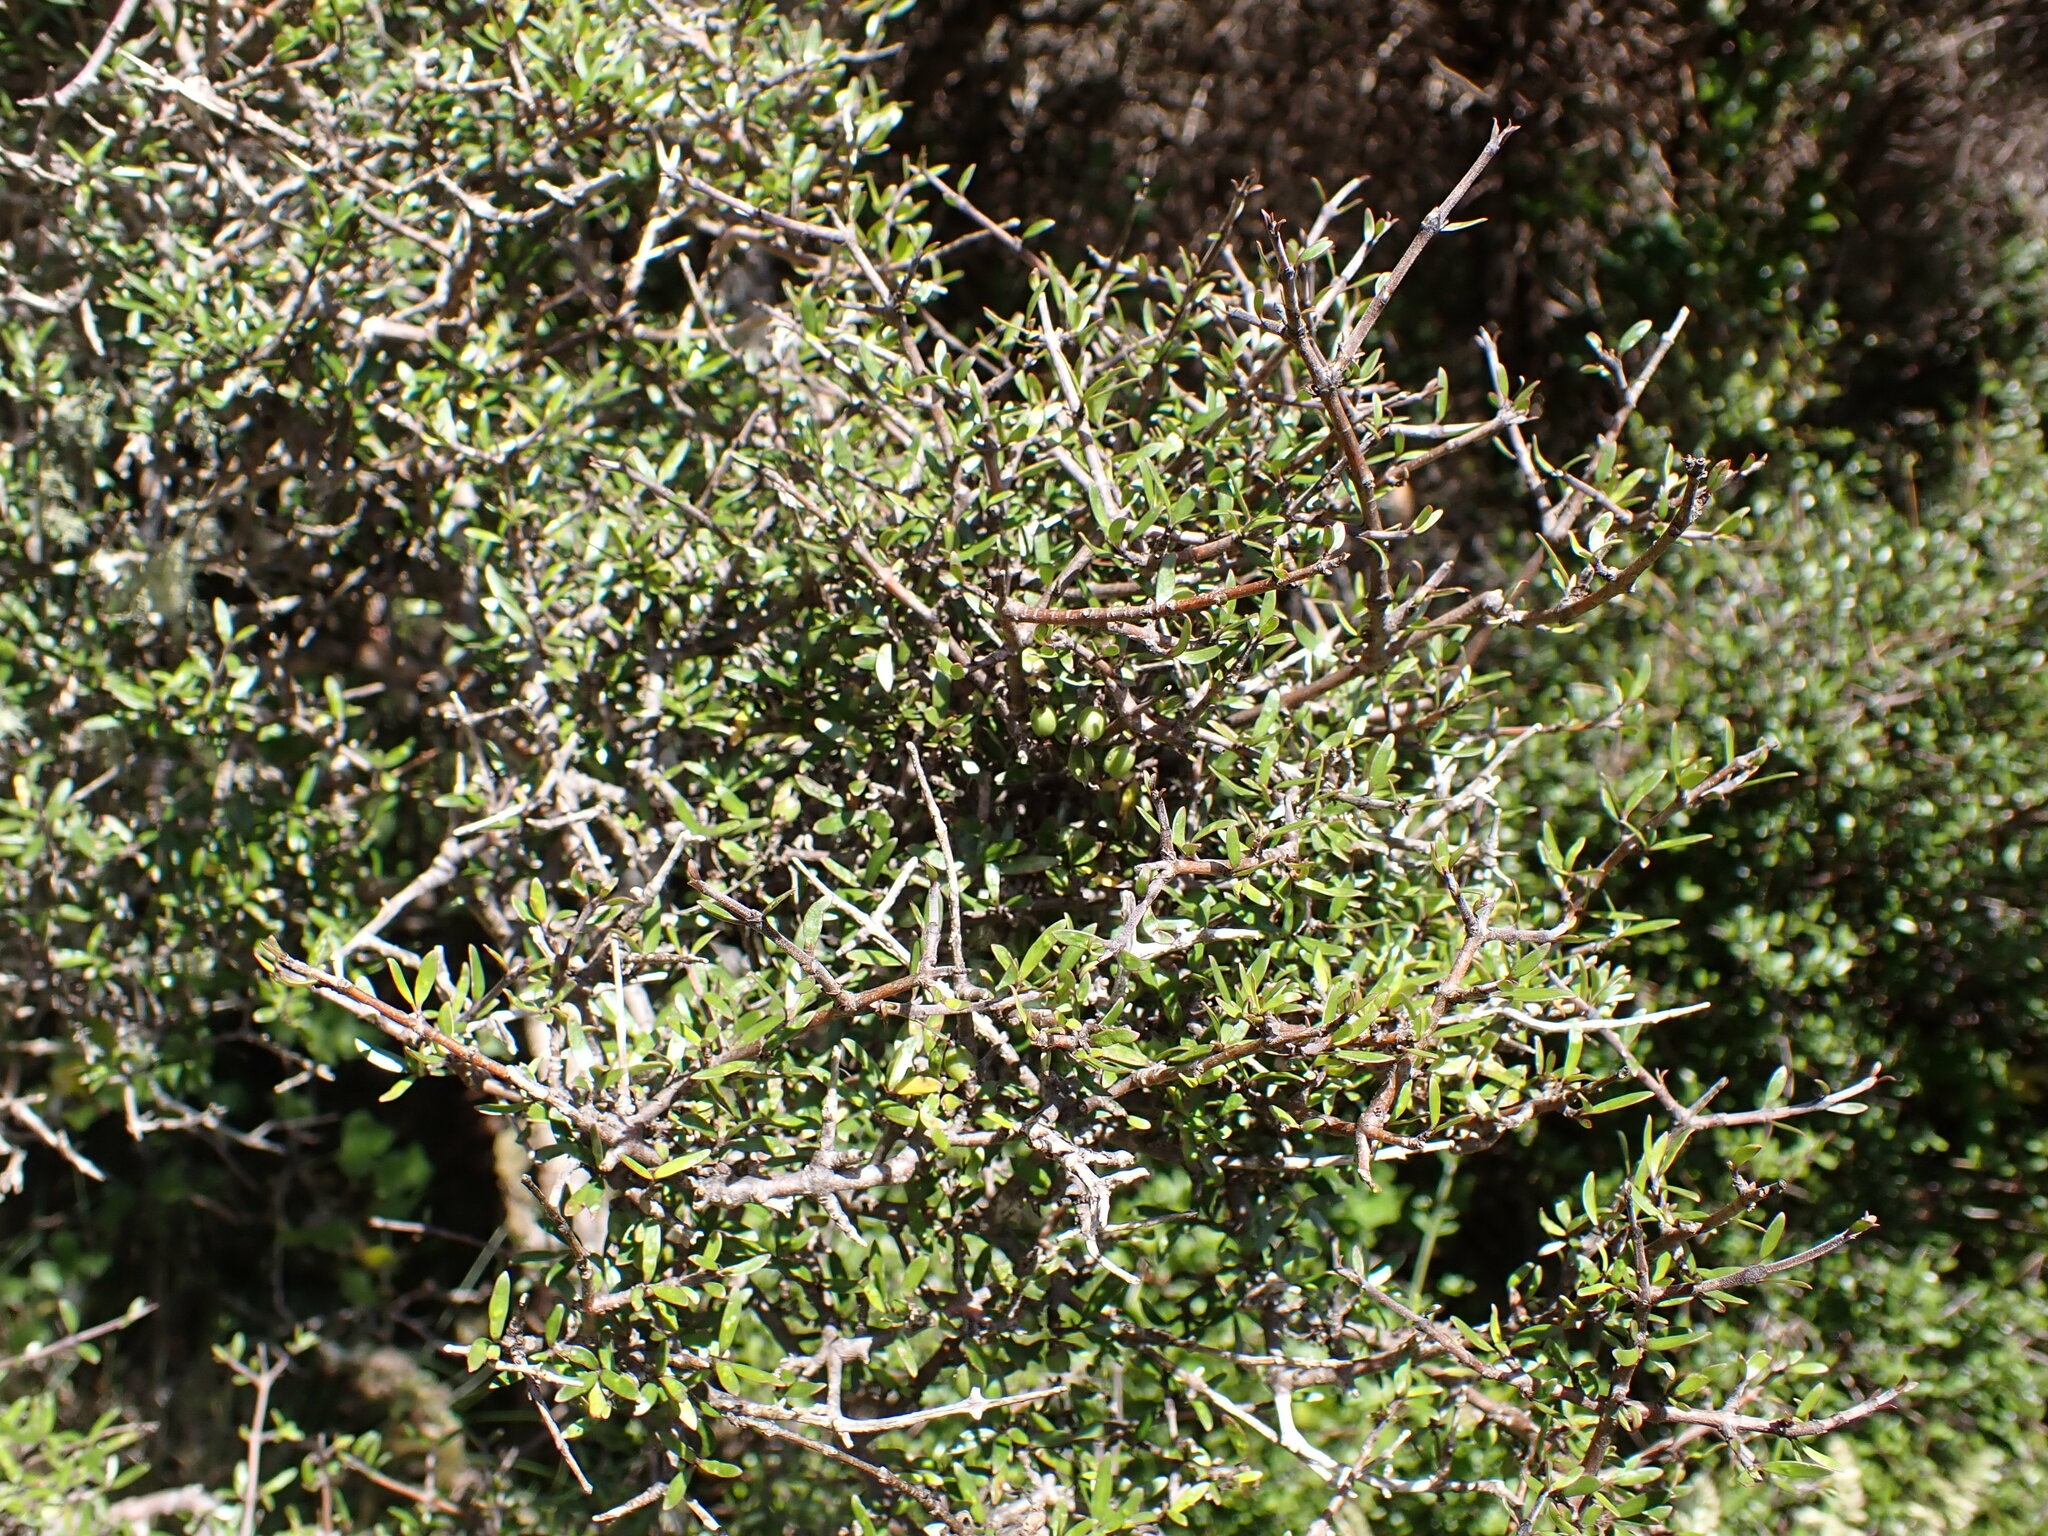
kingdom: Plantae
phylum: Tracheophyta
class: Magnoliopsida
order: Gentianales
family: Rubiaceae
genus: Coprosma
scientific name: Coprosma propinqua
